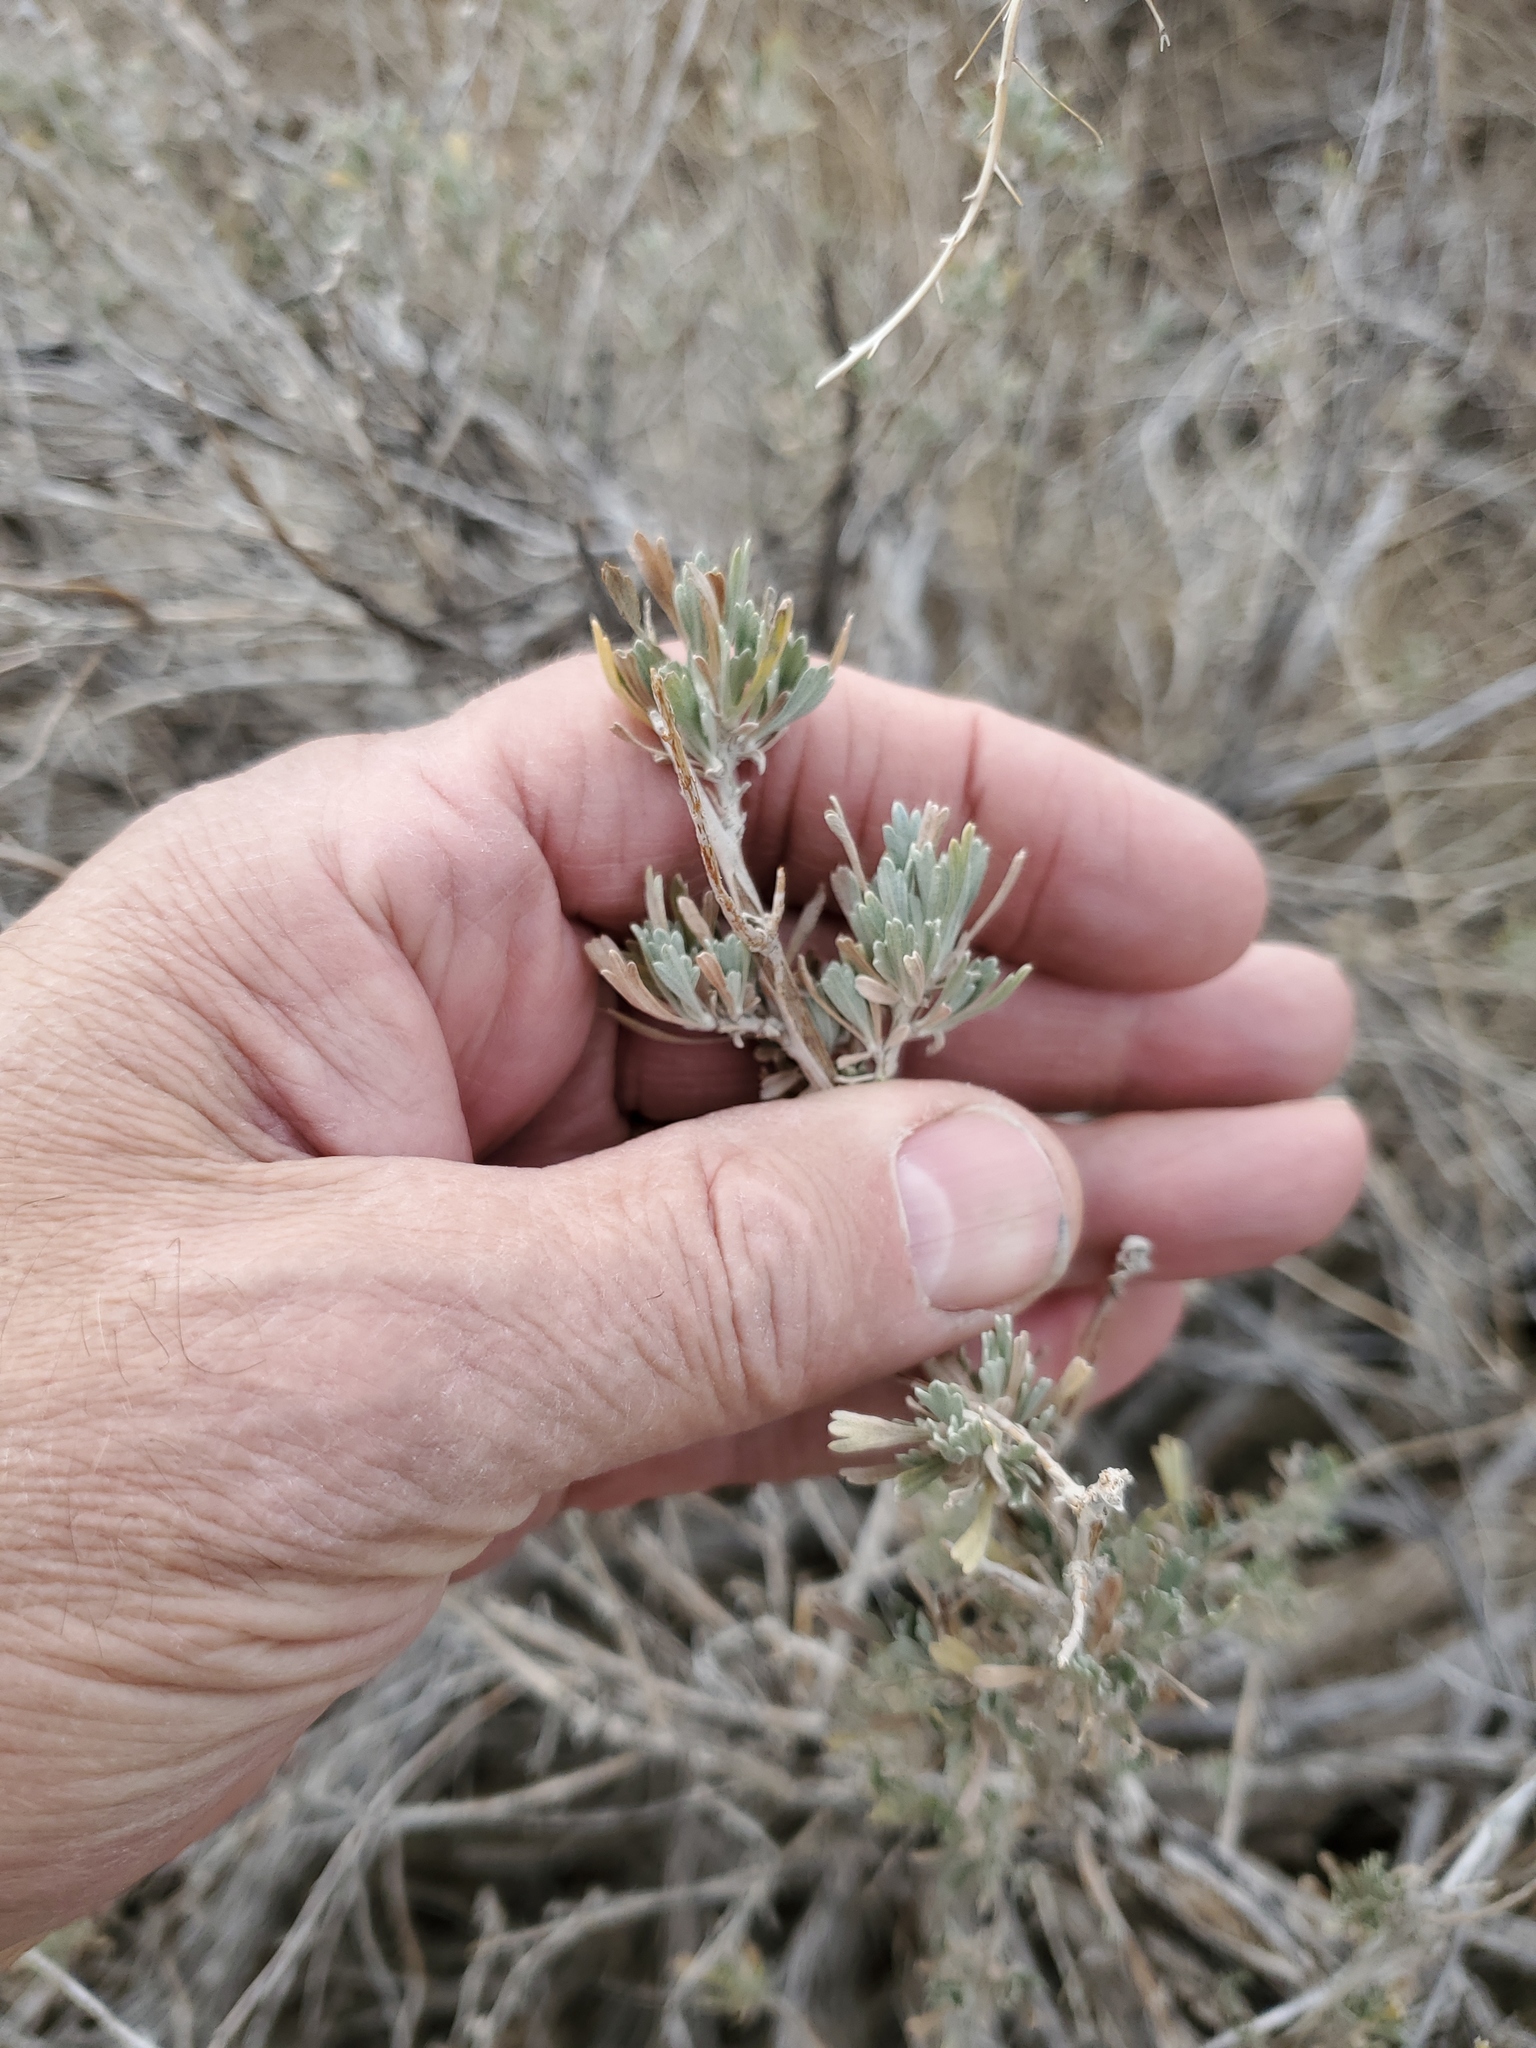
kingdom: Plantae
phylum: Tracheophyta
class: Magnoliopsida
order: Asterales
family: Asteraceae
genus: Artemisia
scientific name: Artemisia tridentata
